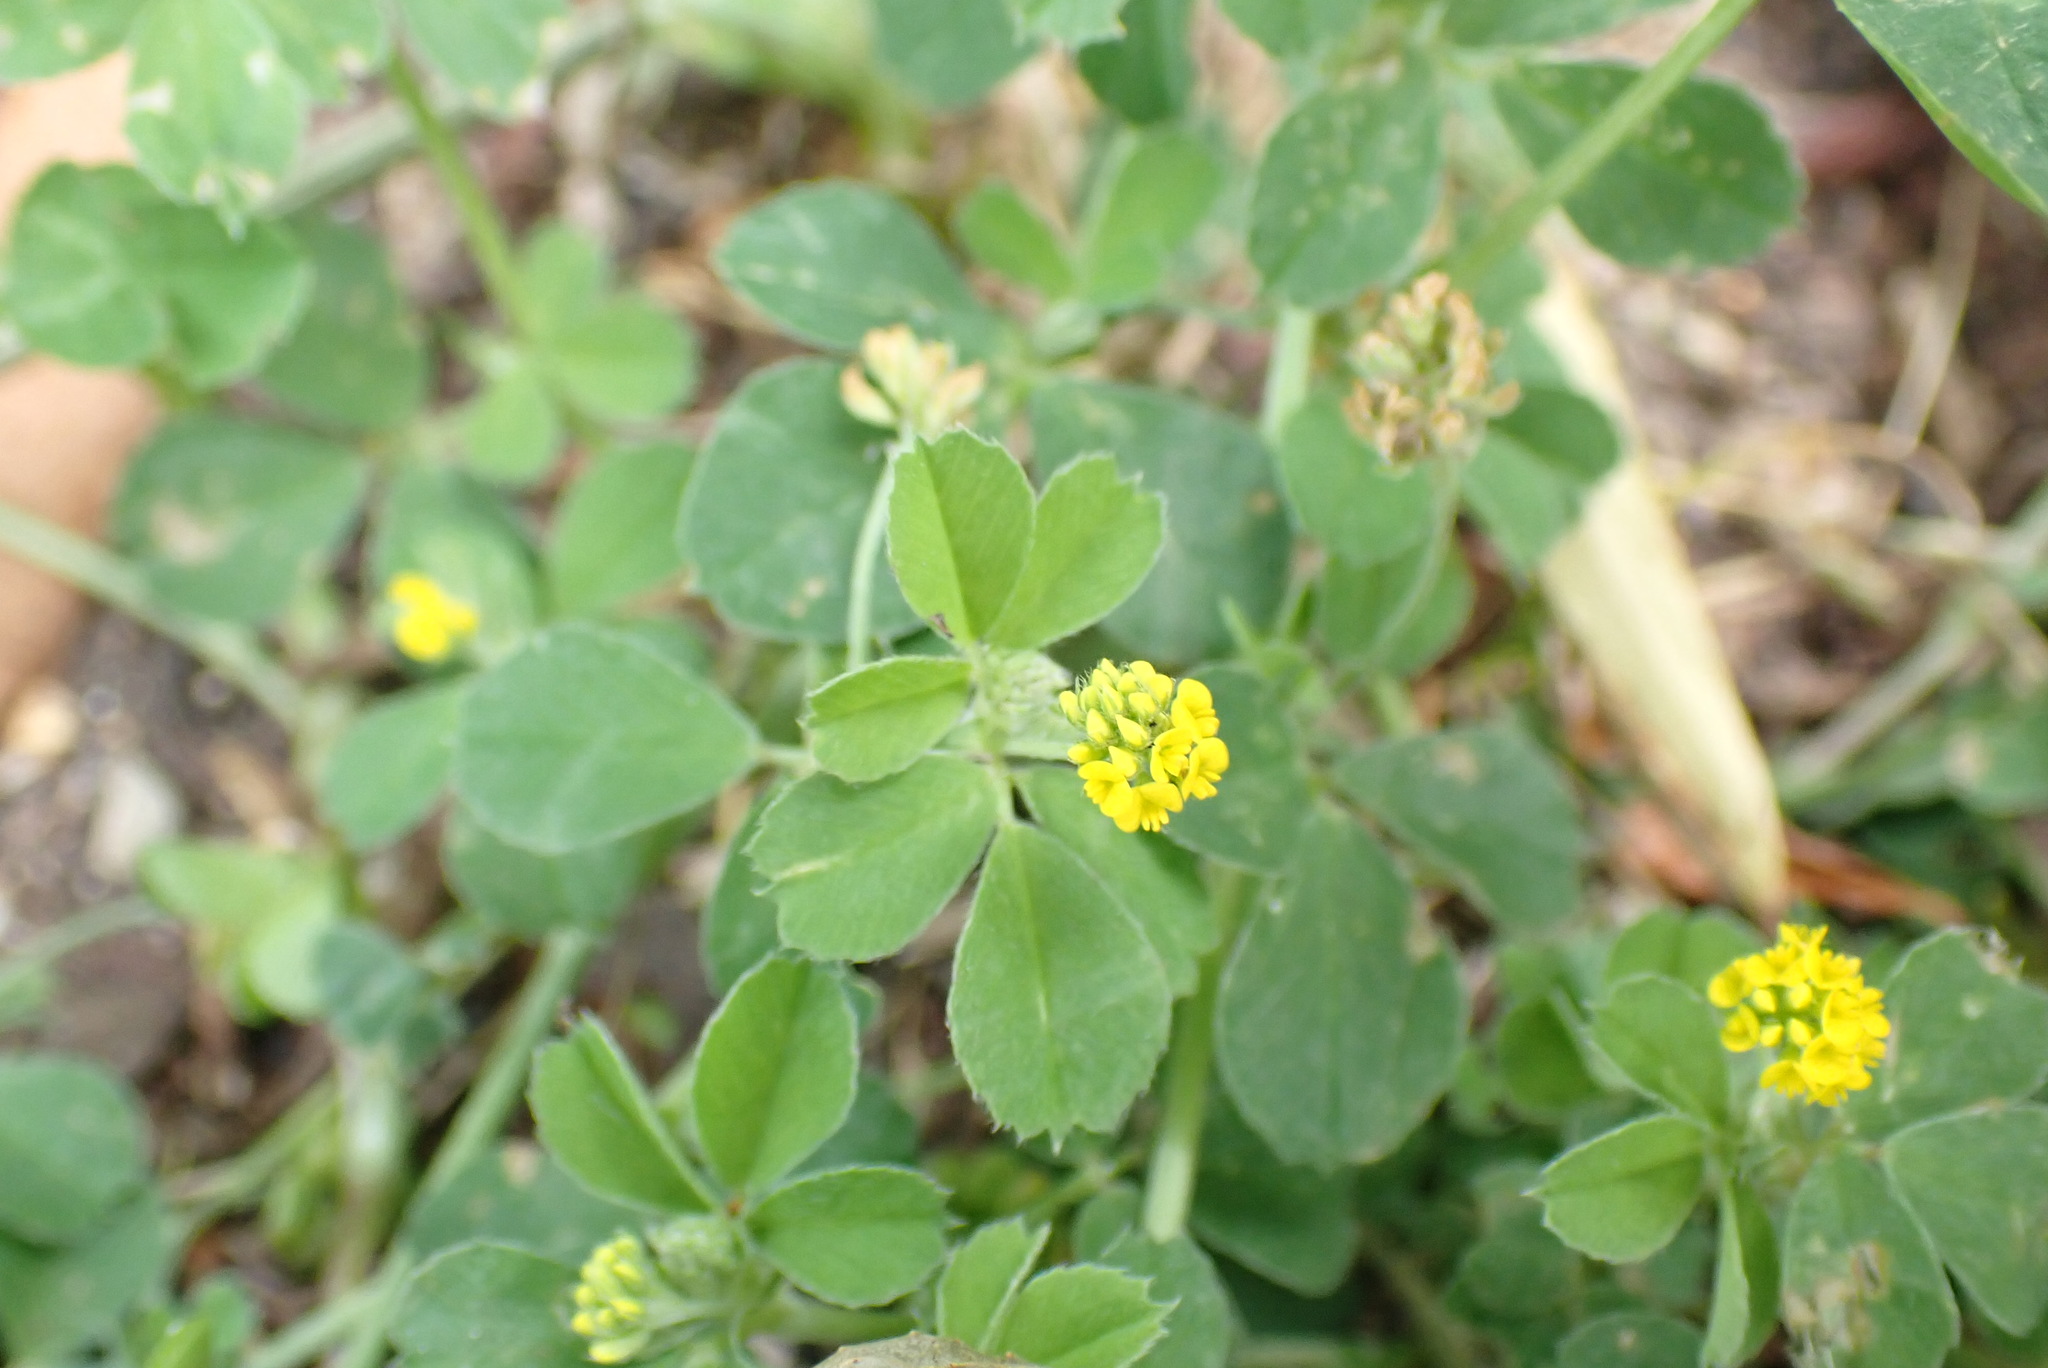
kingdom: Plantae
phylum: Tracheophyta
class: Magnoliopsida
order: Fabales
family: Fabaceae
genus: Medicago
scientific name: Medicago lupulina
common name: Black medick
